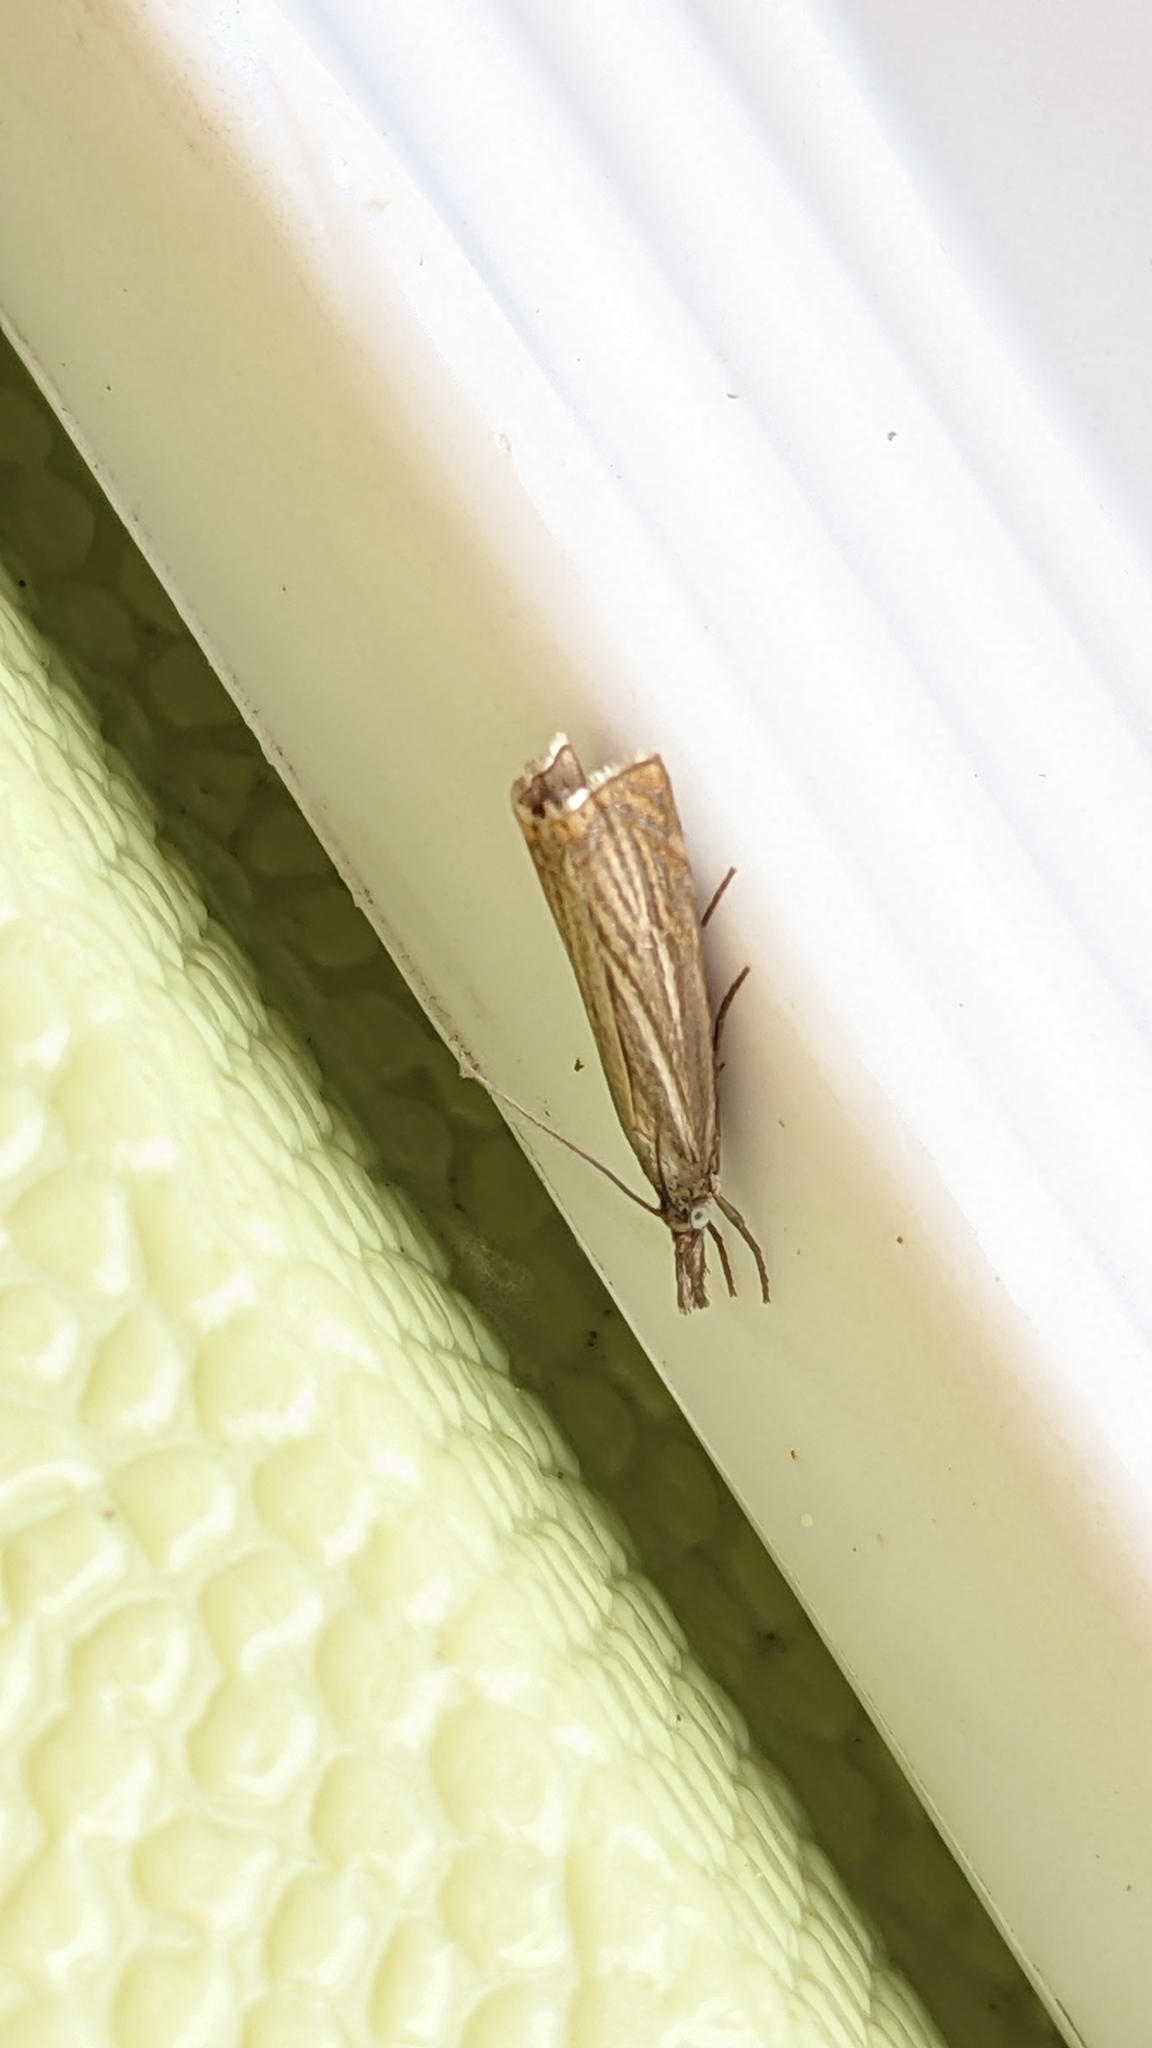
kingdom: Animalia
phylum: Arthropoda
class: Insecta
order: Lepidoptera
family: Crambidae
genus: Chrysoteuchia
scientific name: Chrysoteuchia culmella
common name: Garden grass-veneer
